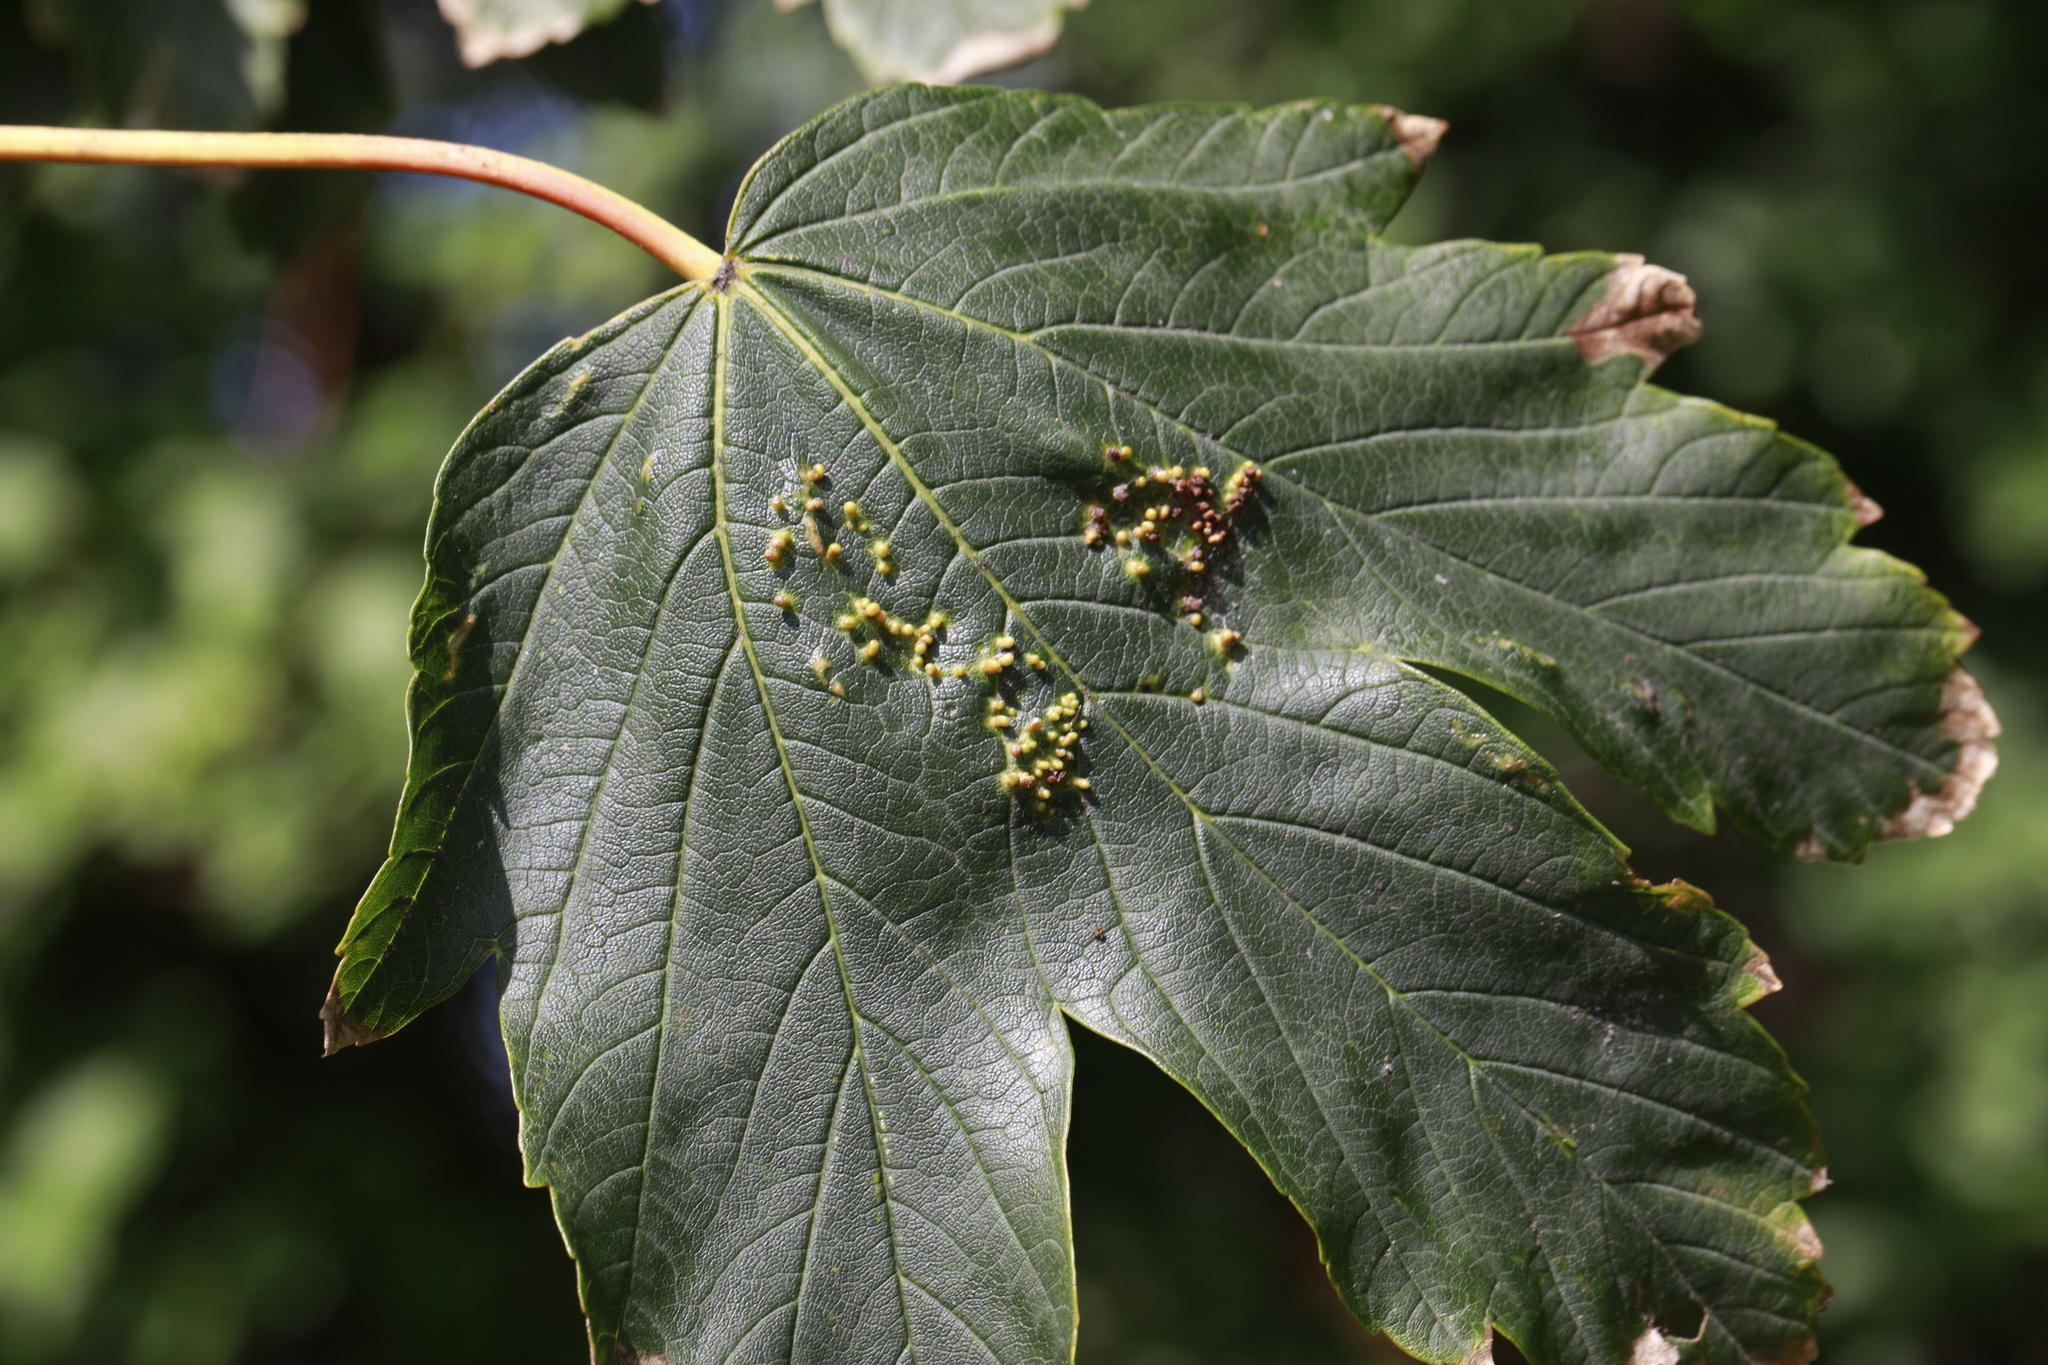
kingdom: Animalia
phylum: Arthropoda
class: Arachnida
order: Trombidiformes
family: Eriophyidae
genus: Aceria
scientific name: Aceria cephaloneus
